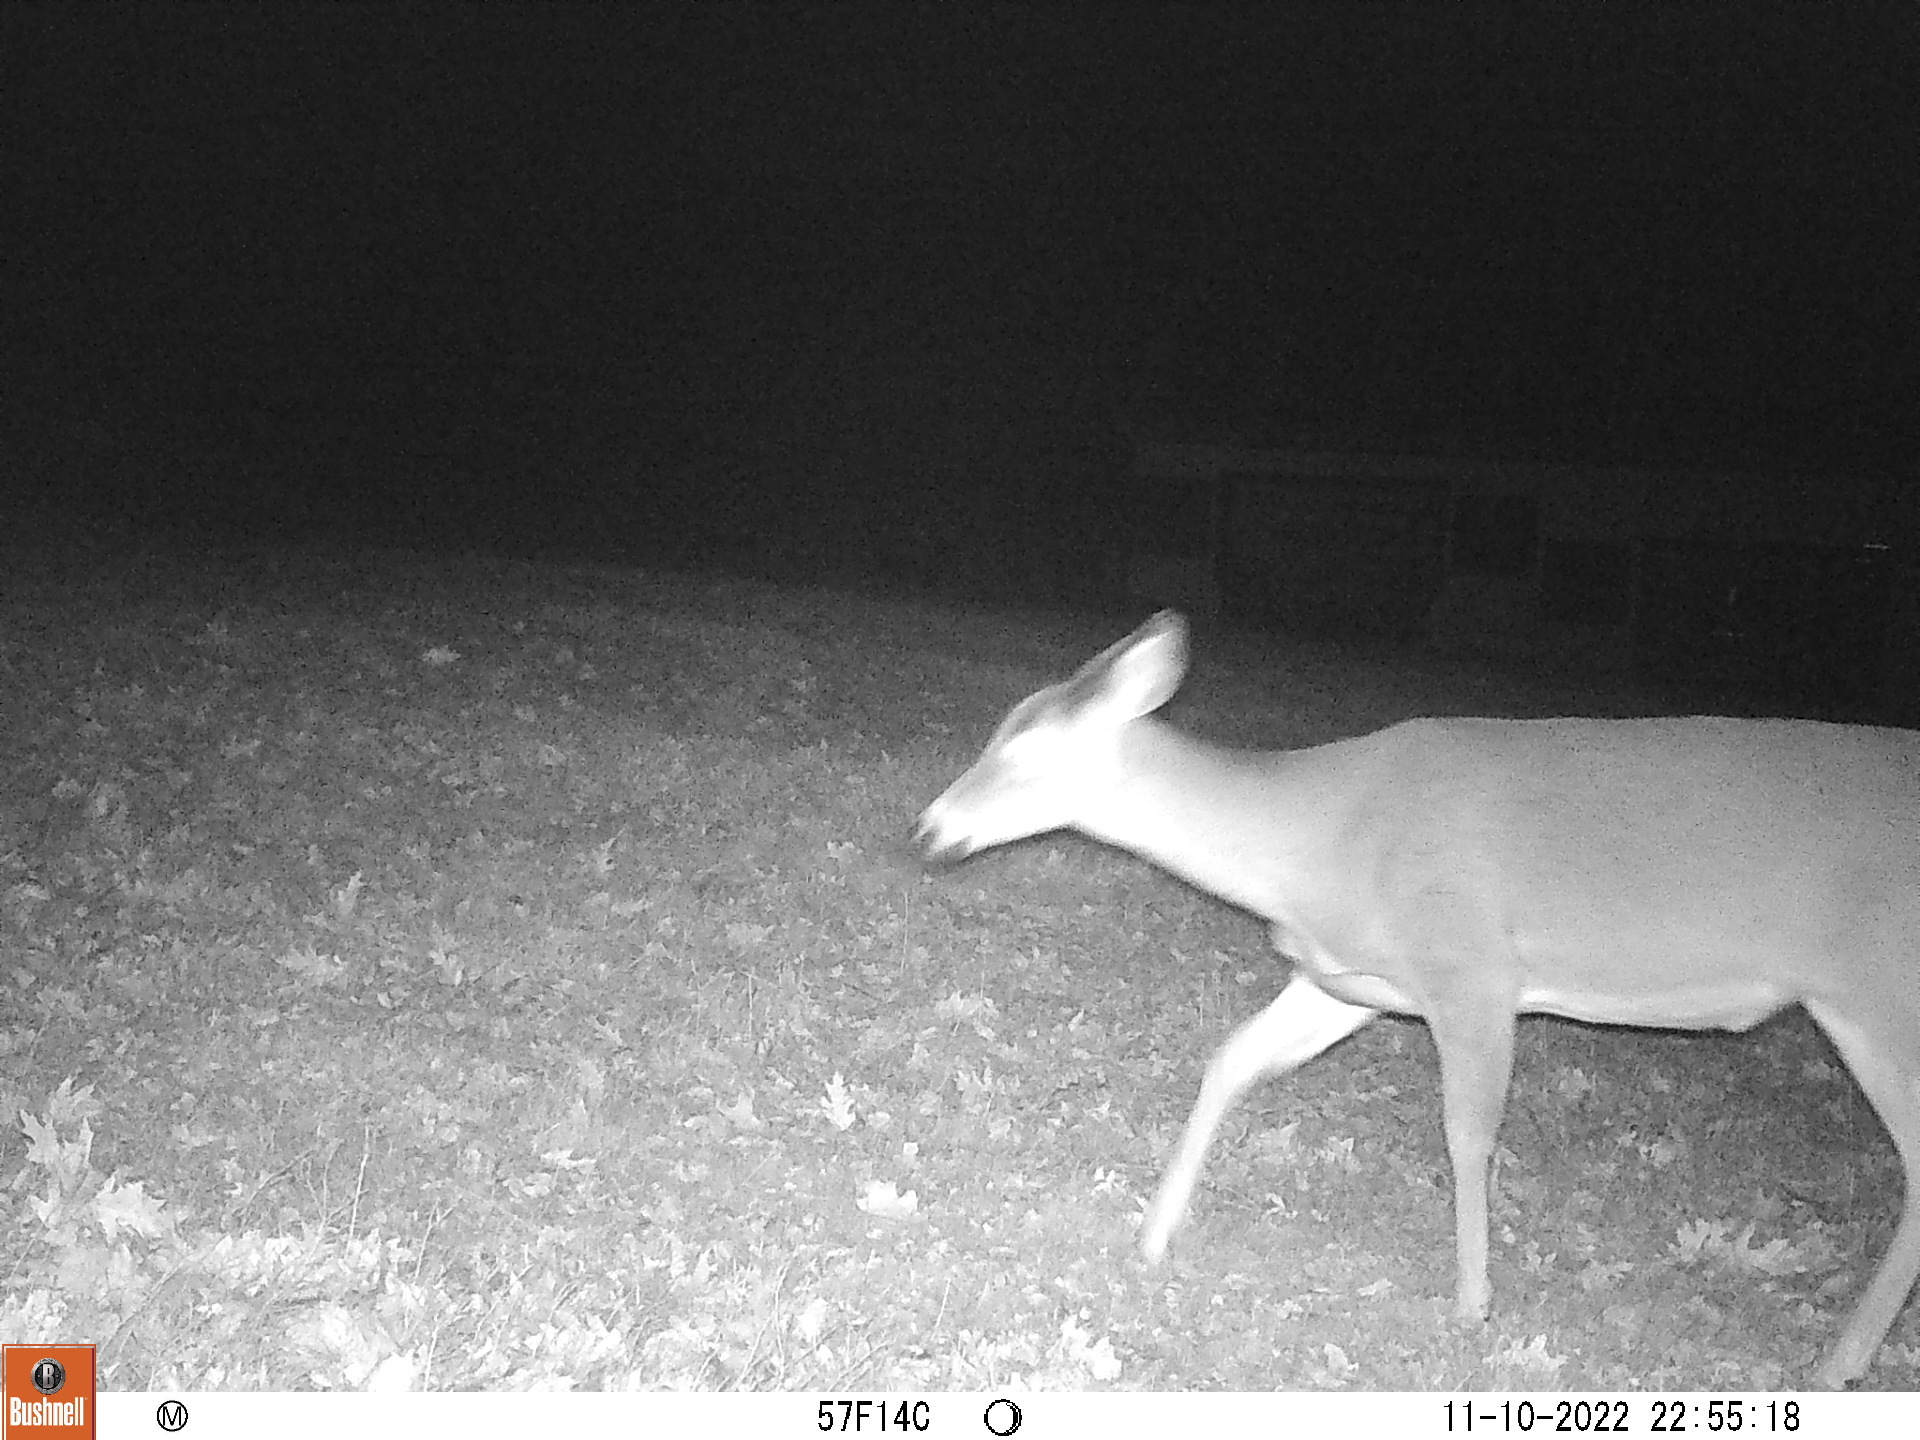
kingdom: Animalia
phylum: Chordata
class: Mammalia
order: Artiodactyla
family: Cervidae
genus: Odocoileus
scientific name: Odocoileus virginianus
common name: White-tailed deer
